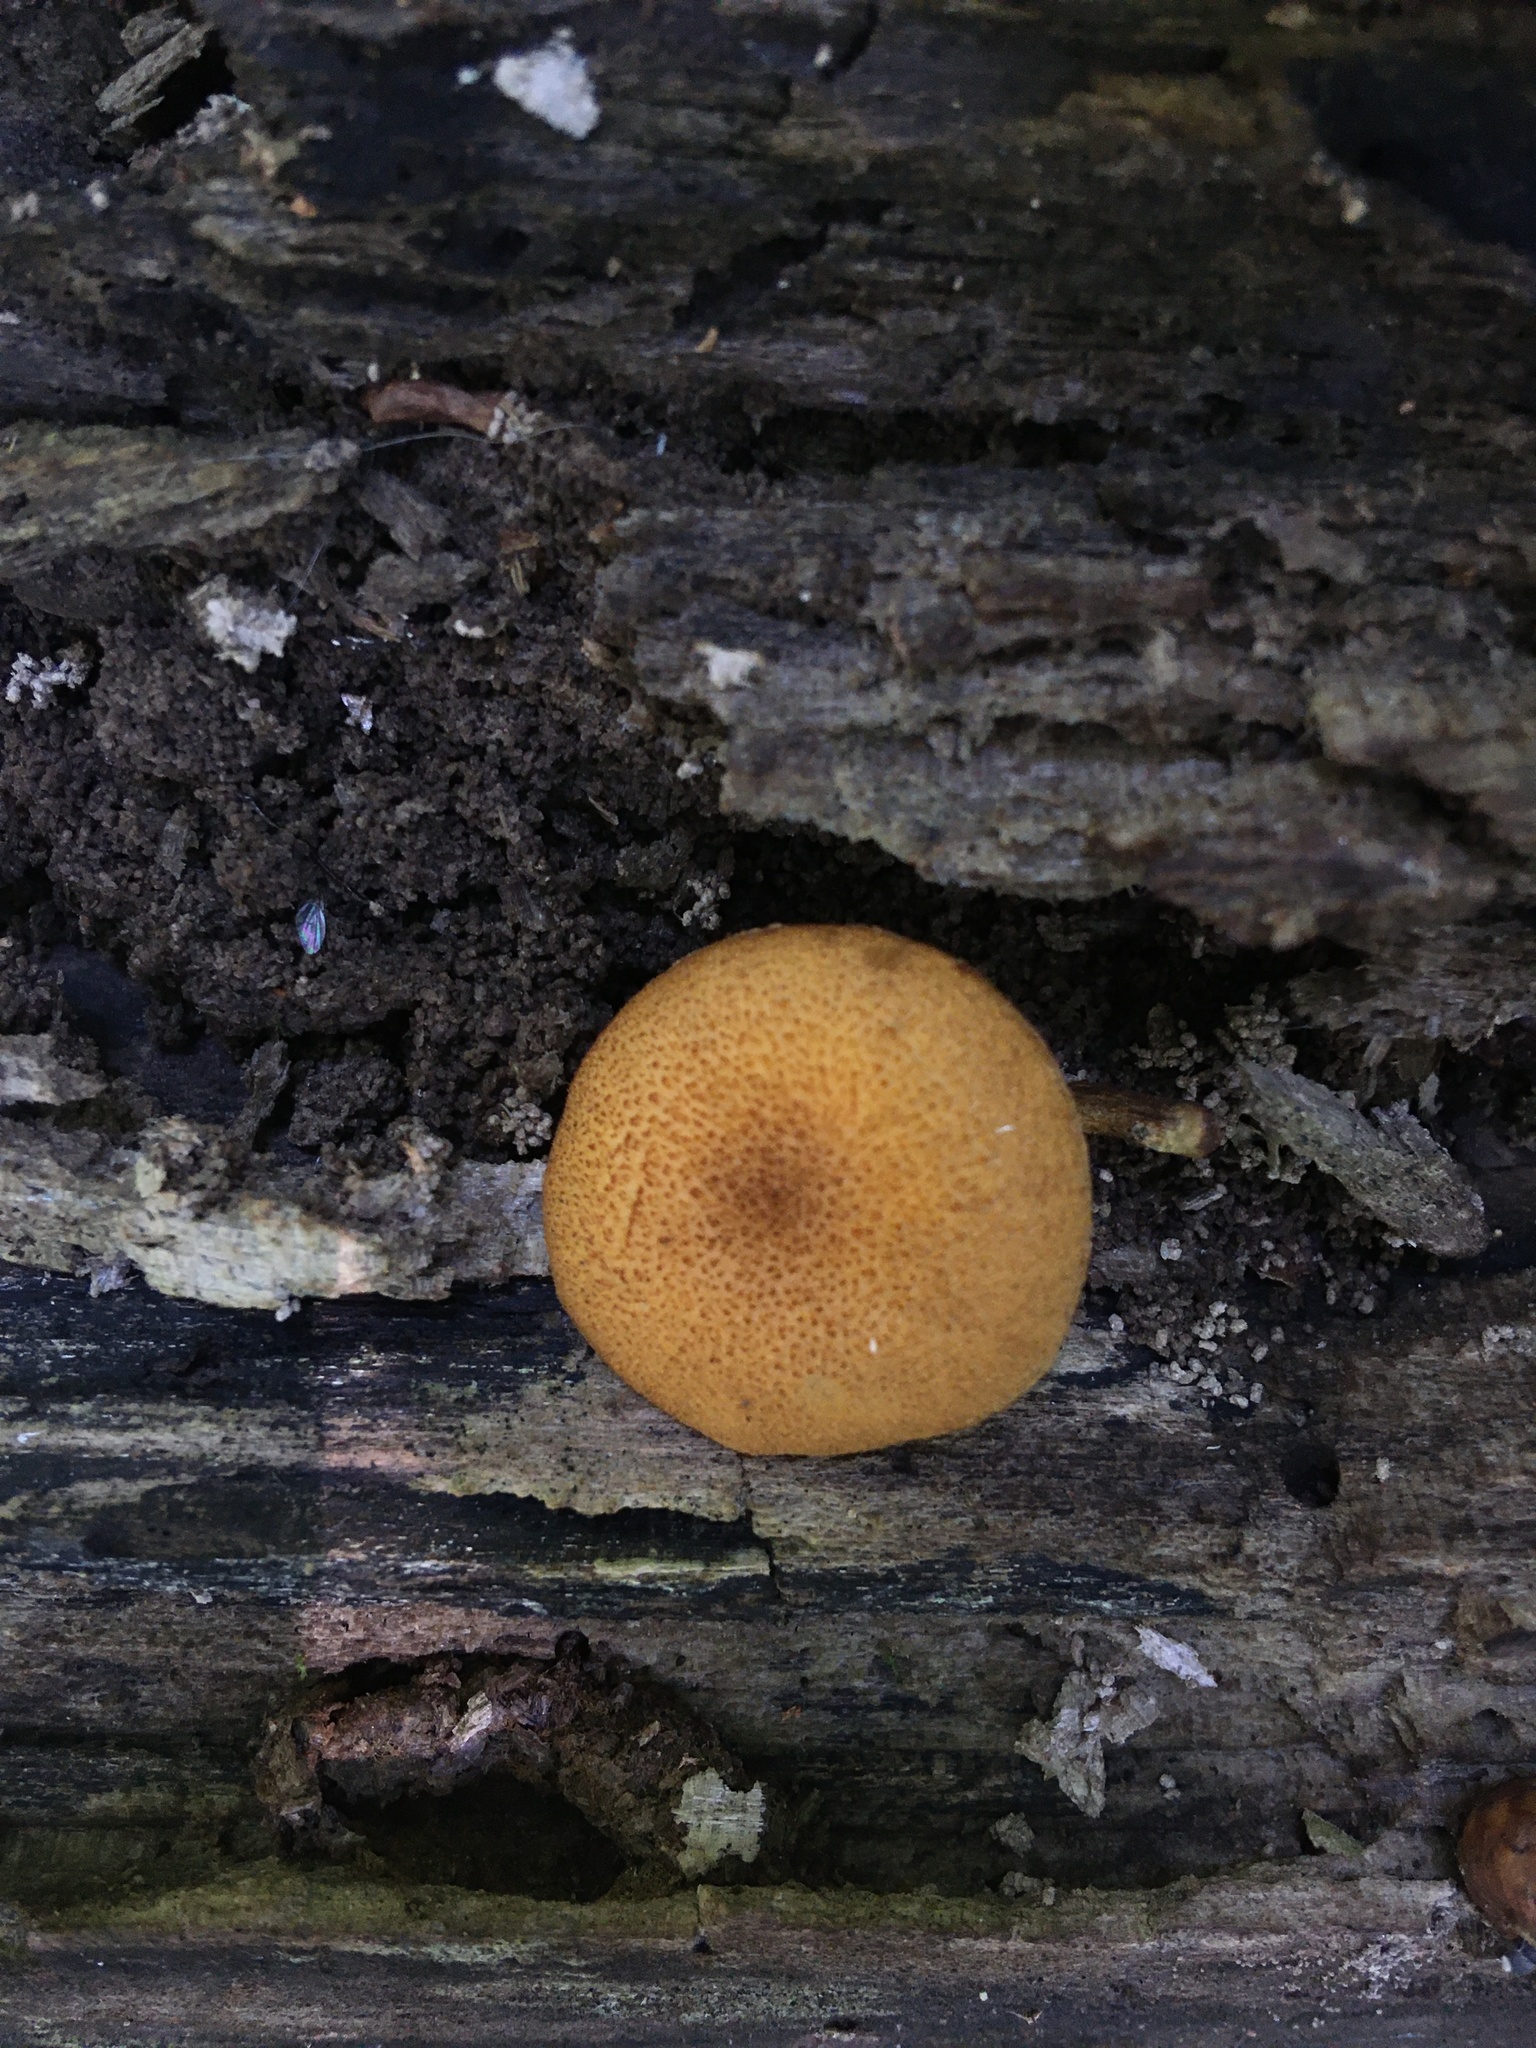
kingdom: Fungi
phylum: Basidiomycota
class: Agaricomycetes
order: Agaricales
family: Strophariaceae
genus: Pholiota
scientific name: Pholiota granulosa
